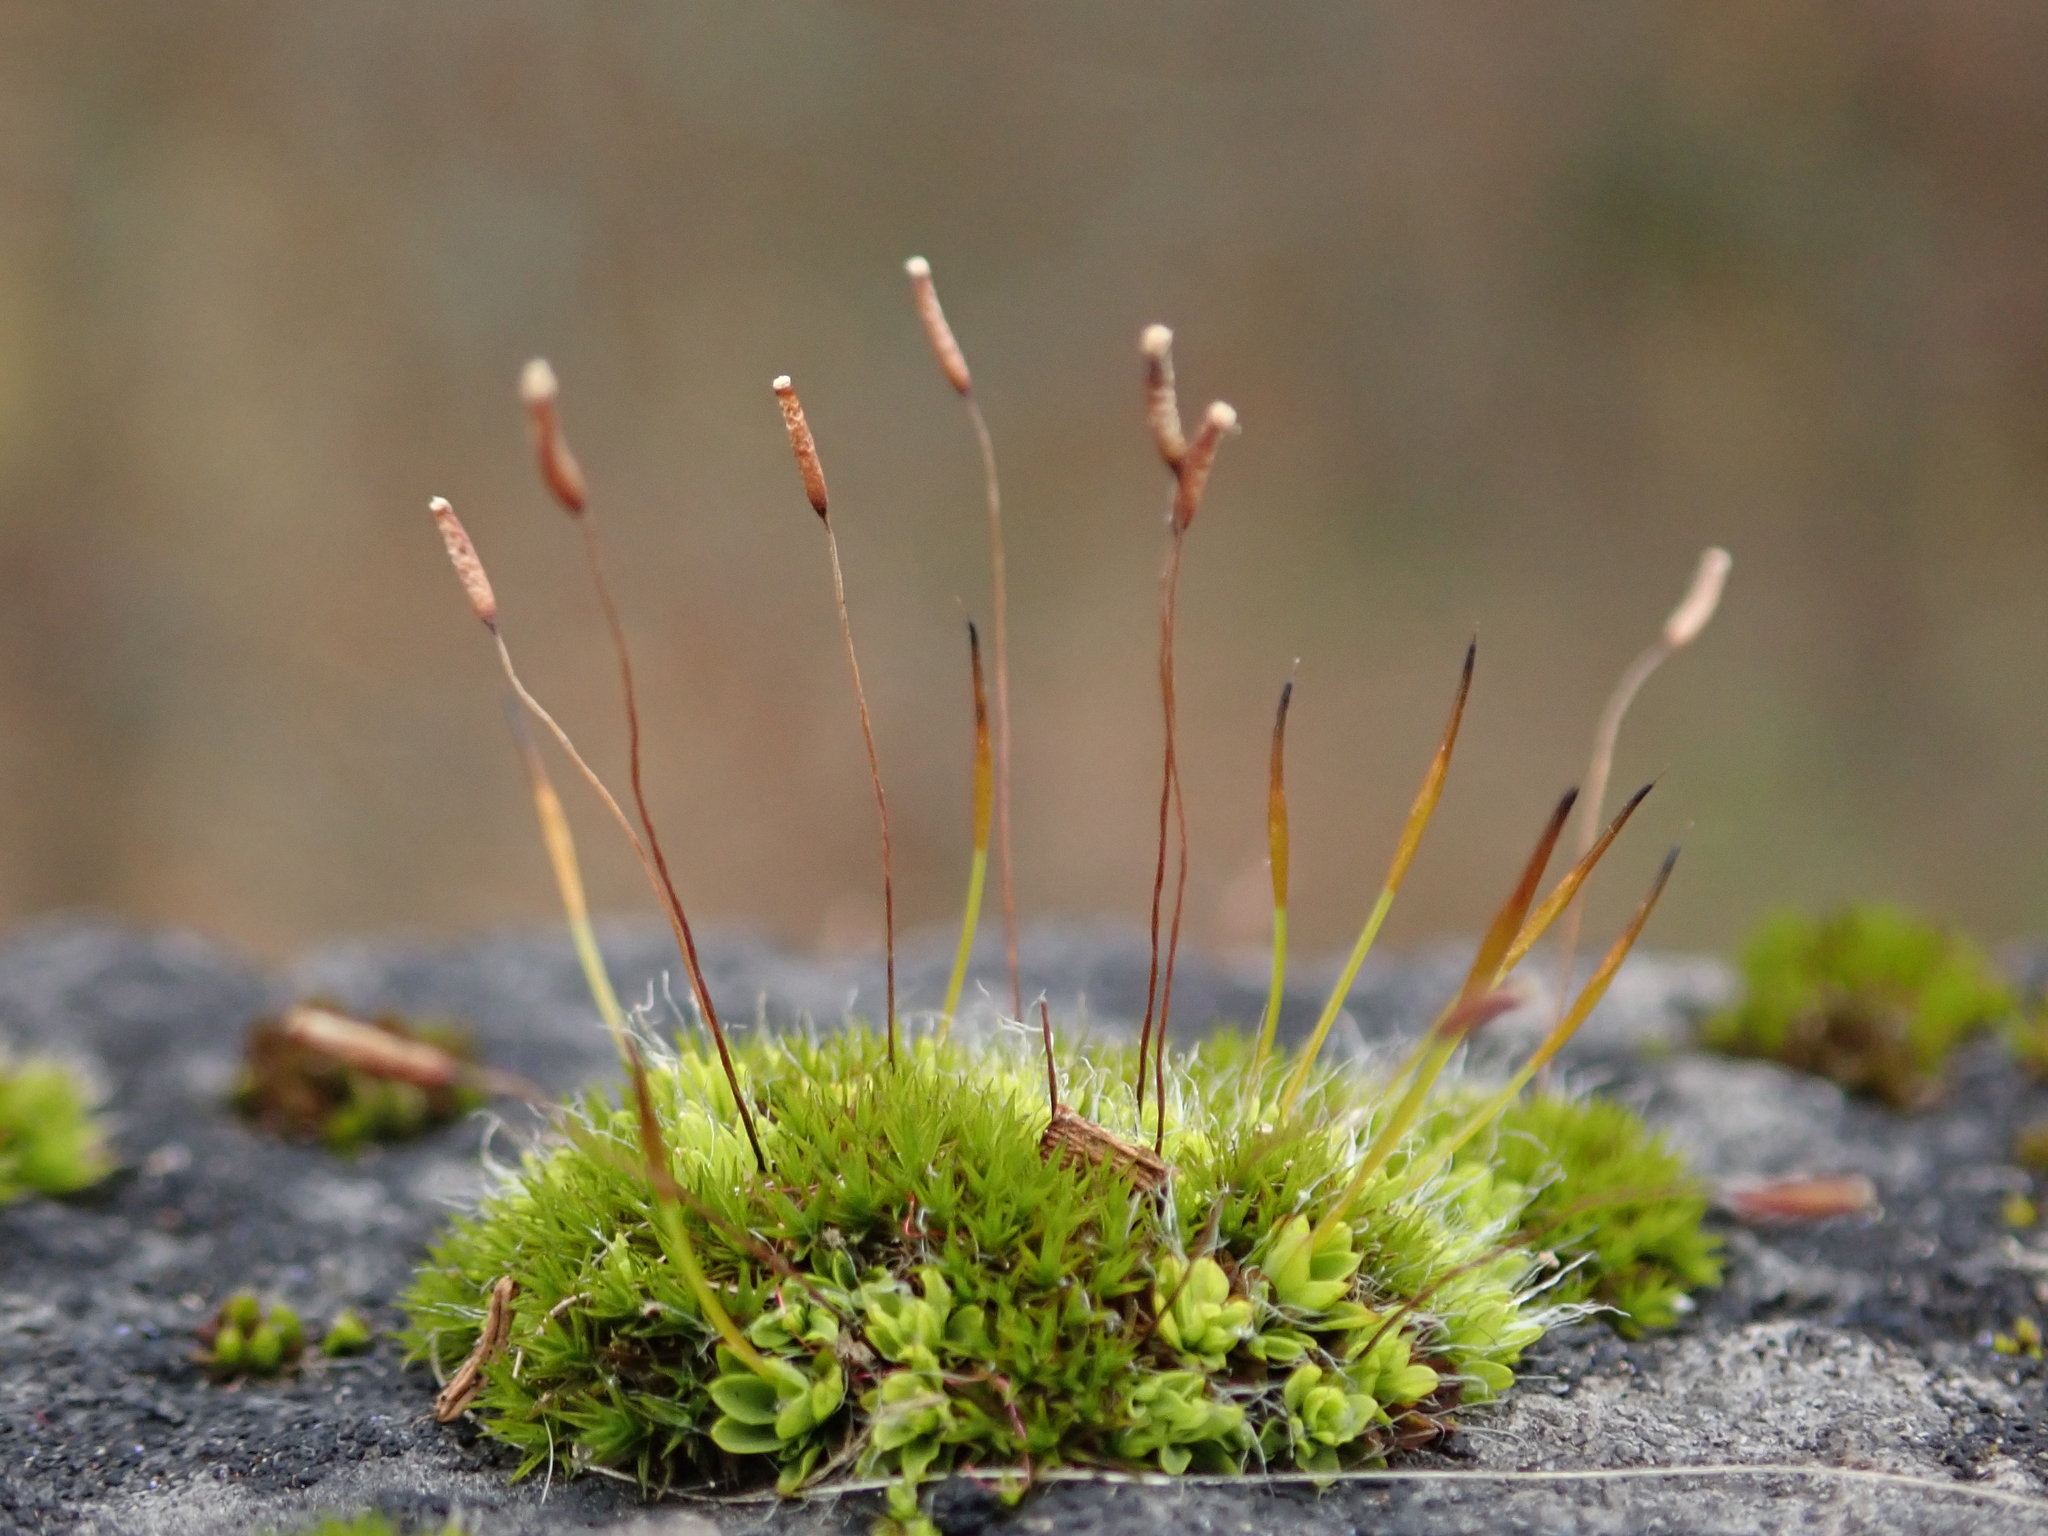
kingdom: Plantae
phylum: Bryophyta
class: Bryopsida
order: Pottiales
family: Pottiaceae
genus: Tortula
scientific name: Tortula muralis
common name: Wall screw-moss
